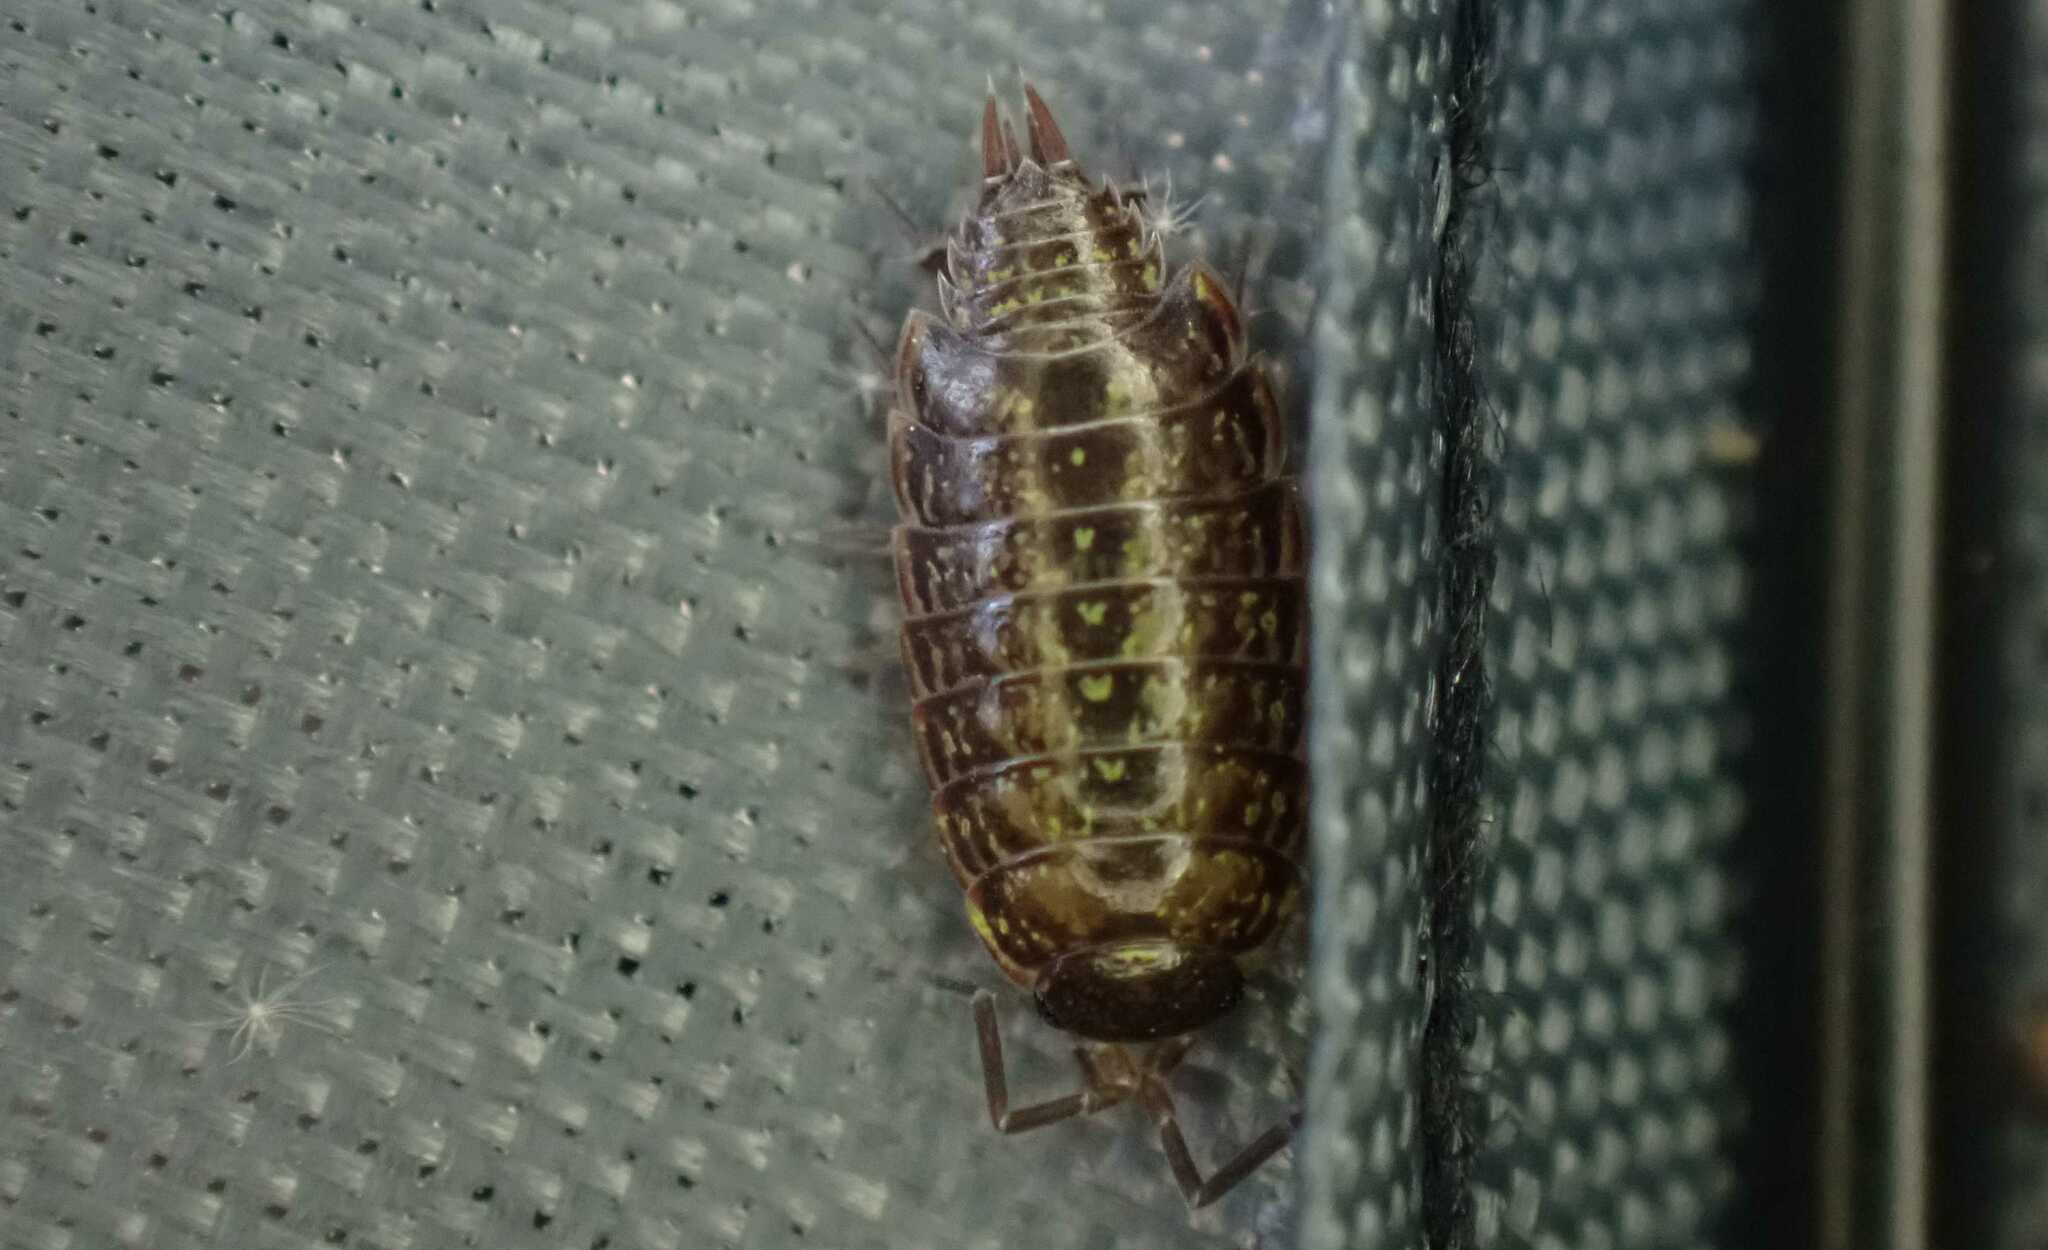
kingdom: Animalia
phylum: Arthropoda
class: Malacostraca
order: Isopoda
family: Philosciidae
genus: Philoscia
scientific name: Philoscia muscorum
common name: Common striped woodlouse
